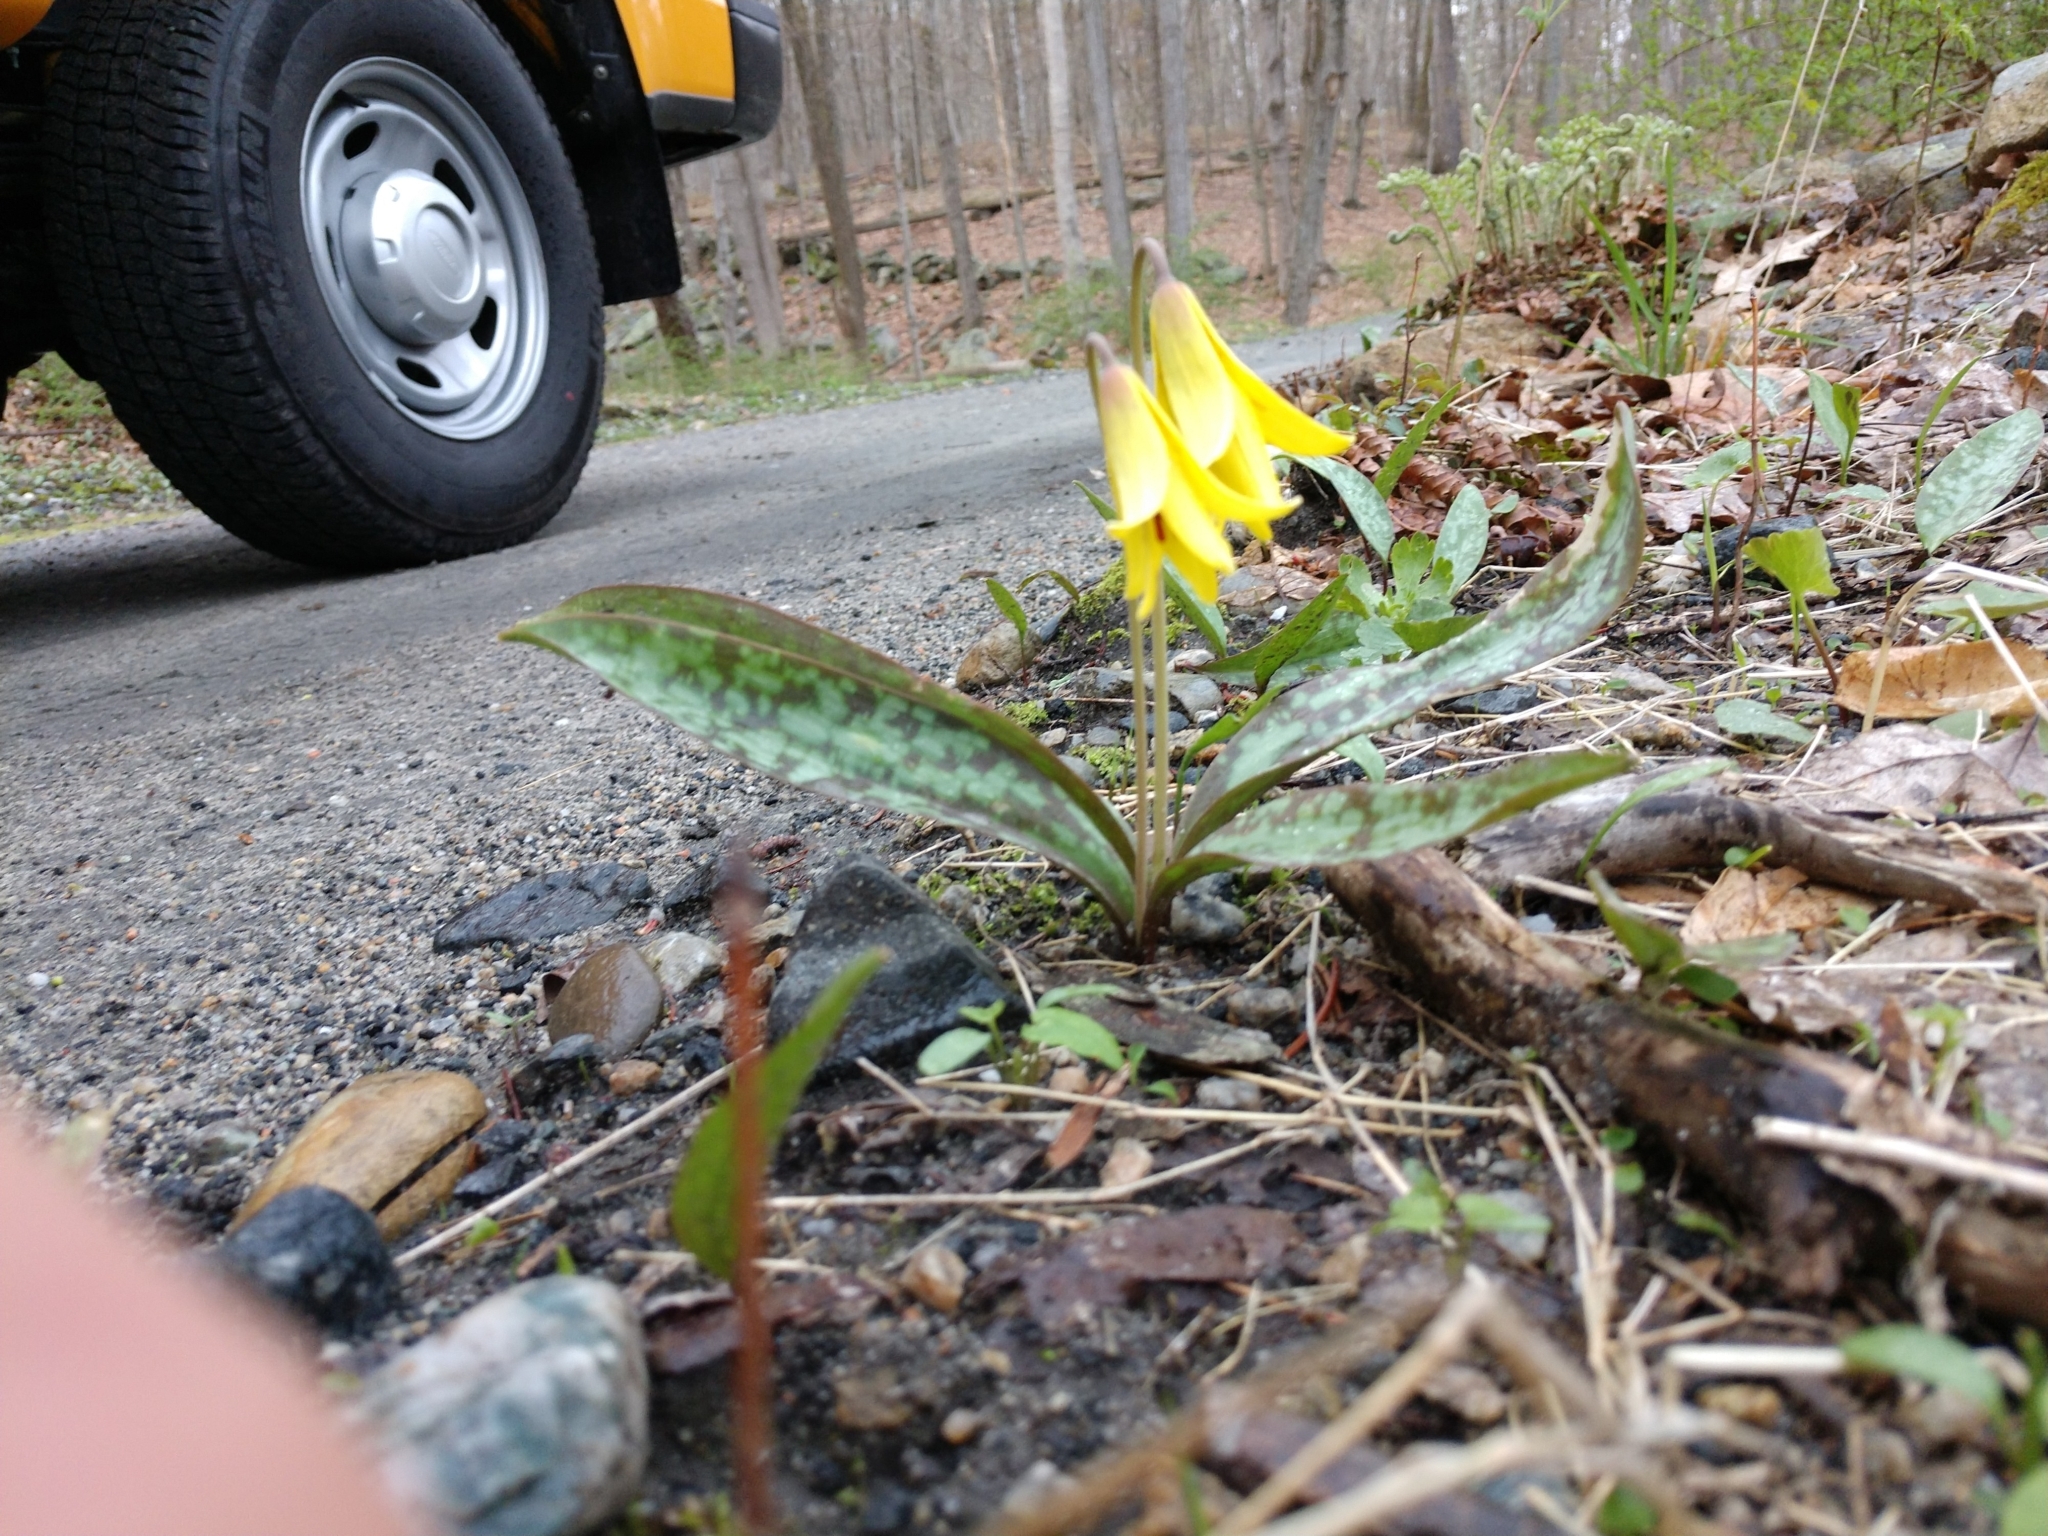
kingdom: Plantae
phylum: Tracheophyta
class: Liliopsida
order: Liliales
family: Liliaceae
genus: Erythronium
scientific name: Erythronium americanum
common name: Yellow adder's-tongue
